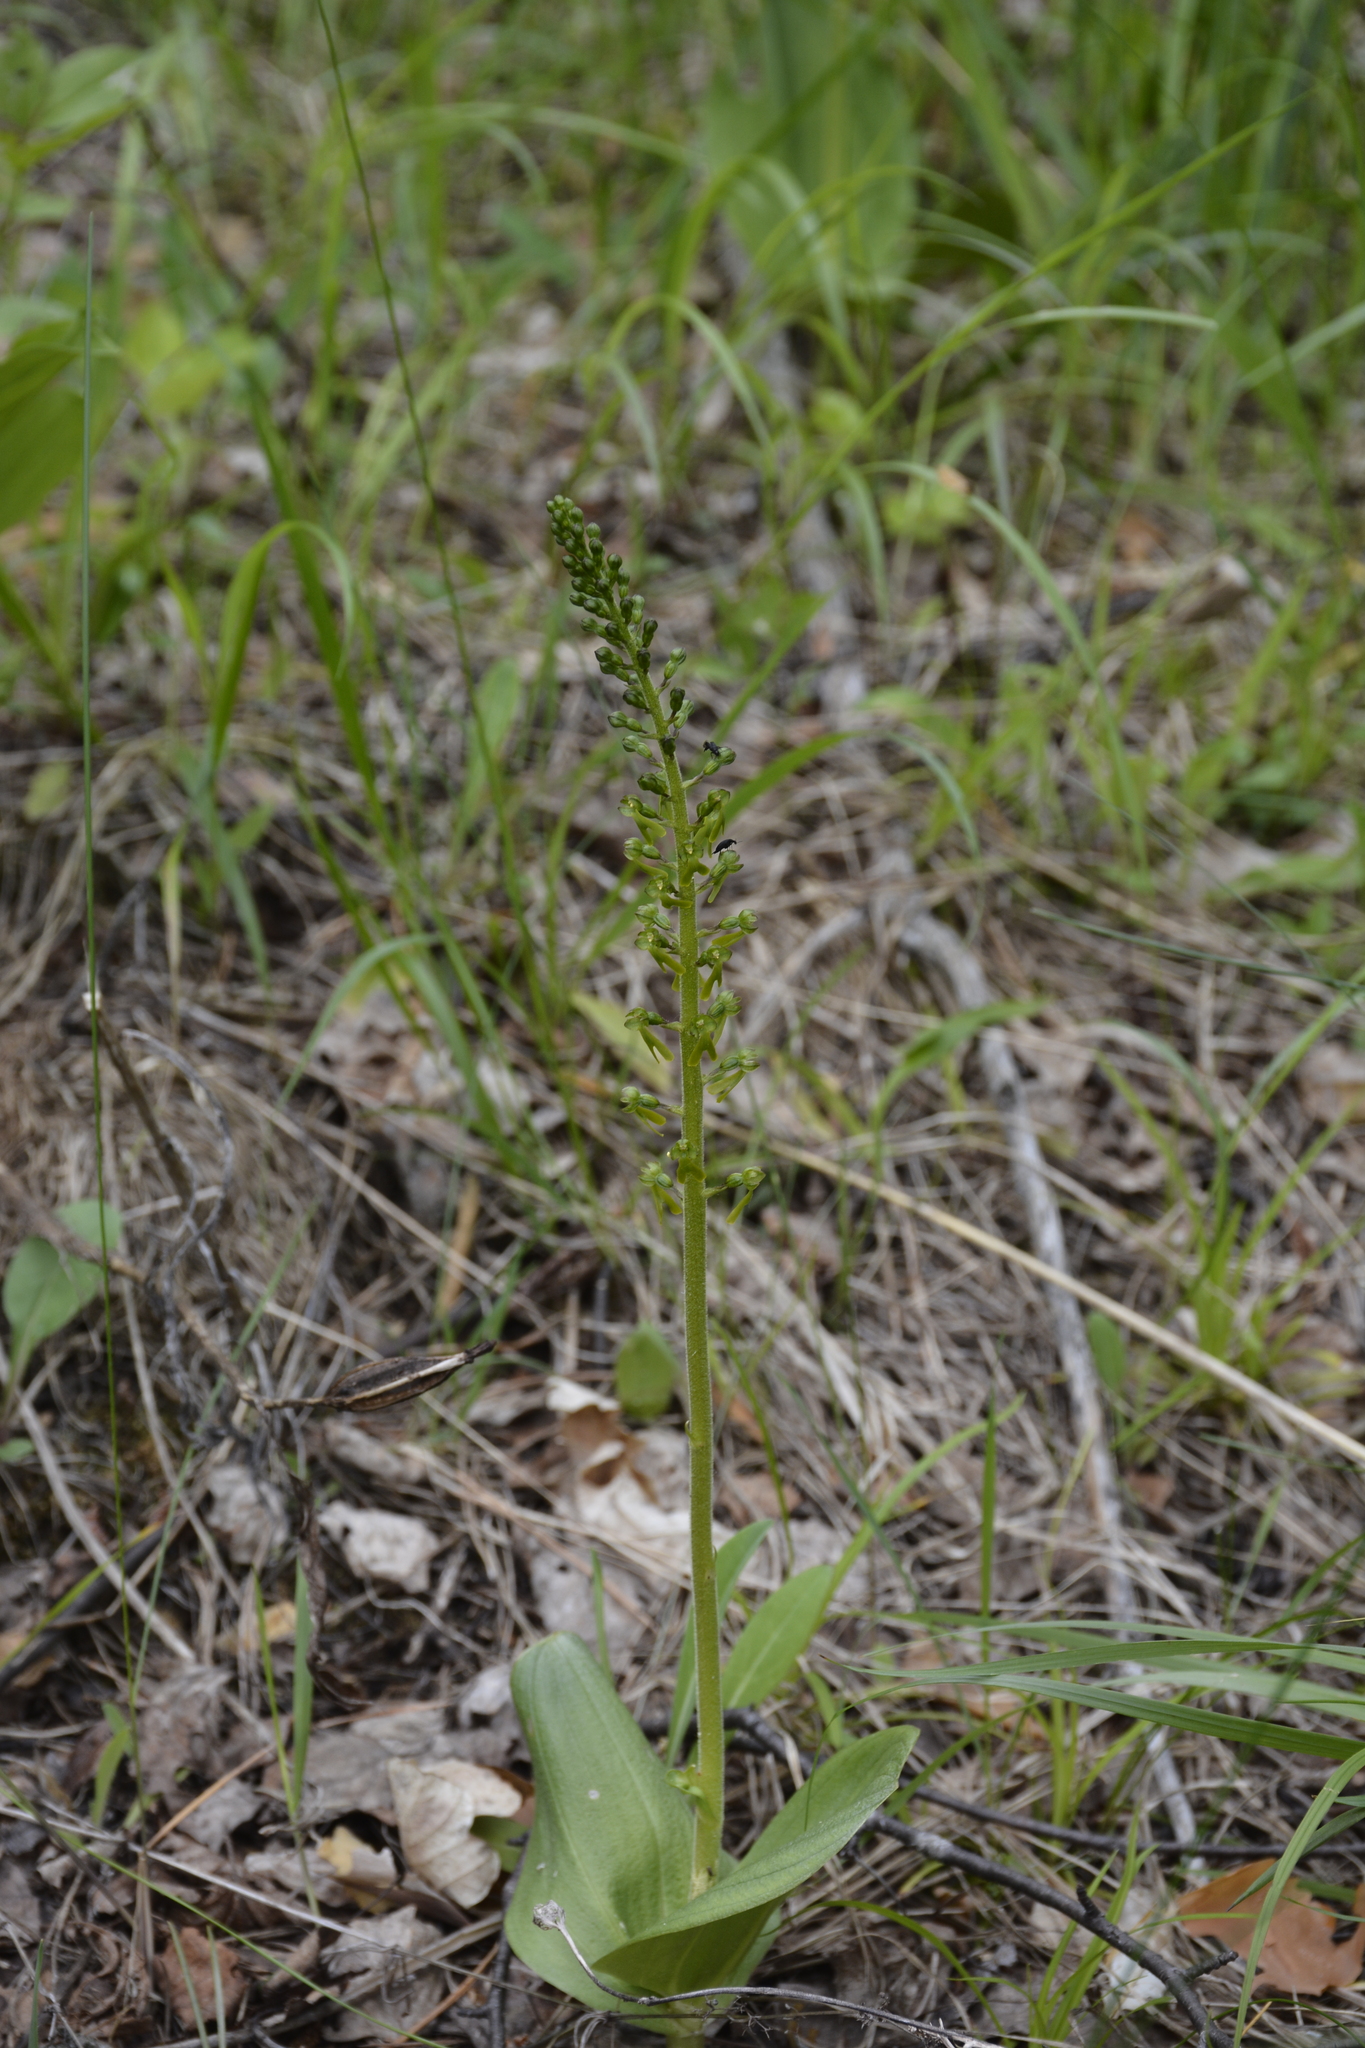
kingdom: Plantae
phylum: Tracheophyta
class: Liliopsida
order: Asparagales
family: Orchidaceae
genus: Neottia
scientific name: Neottia ovata
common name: Common twayblade
